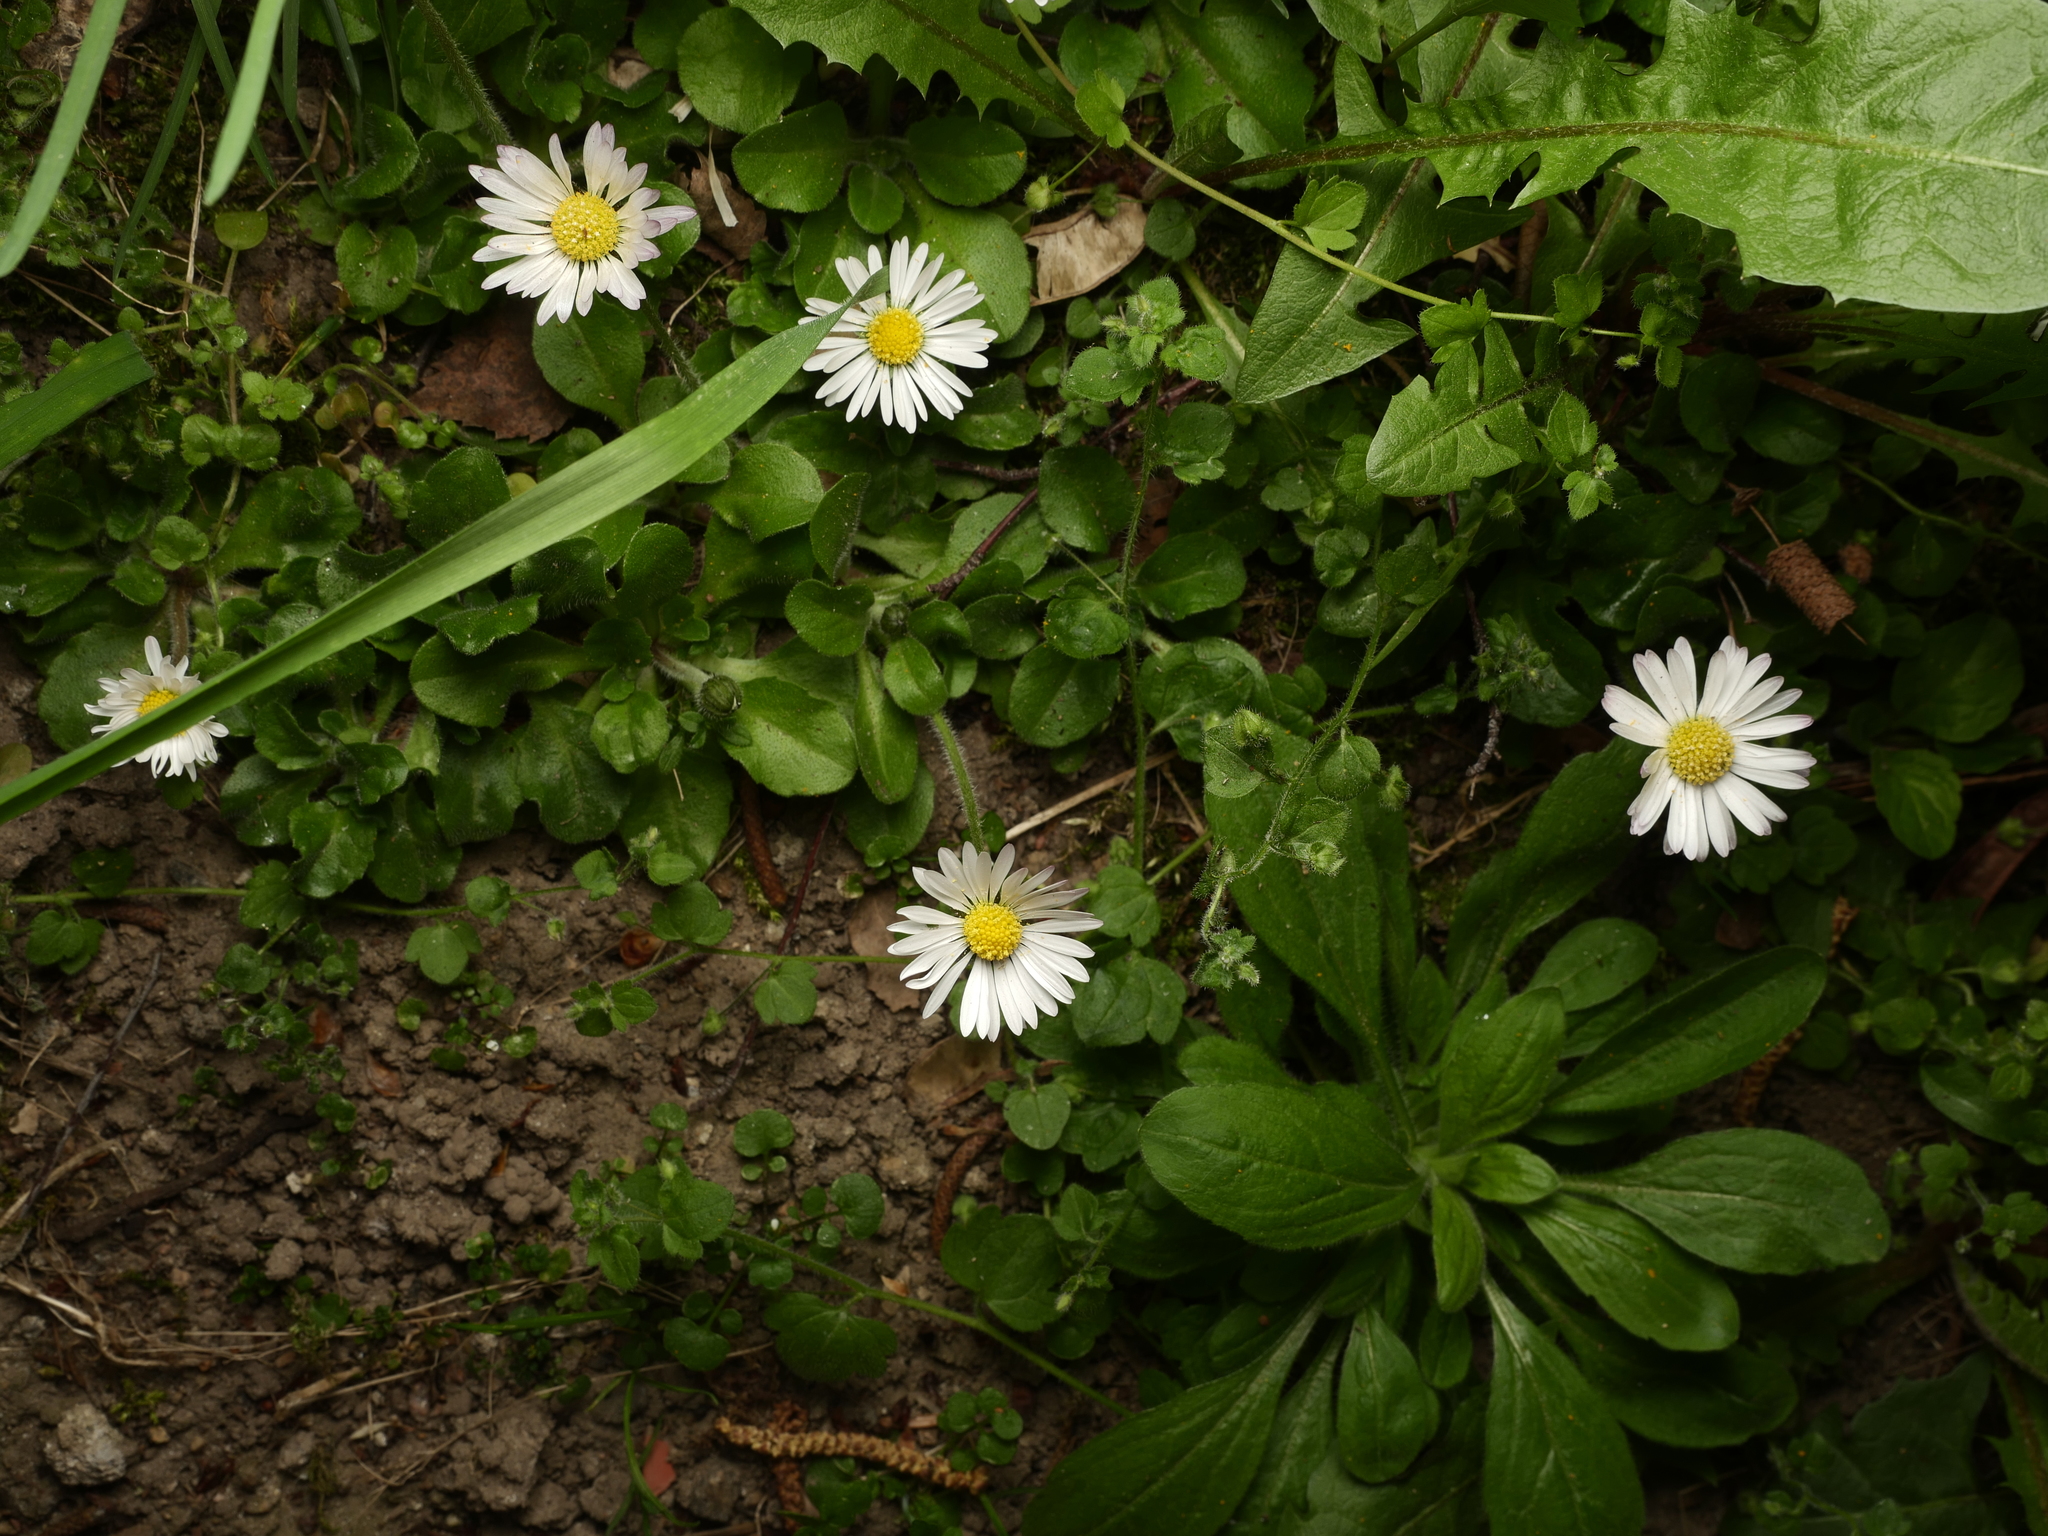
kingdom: Plantae
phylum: Tracheophyta
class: Magnoliopsida
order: Asterales
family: Asteraceae
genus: Bellis
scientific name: Bellis perennis
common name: Lawndaisy
